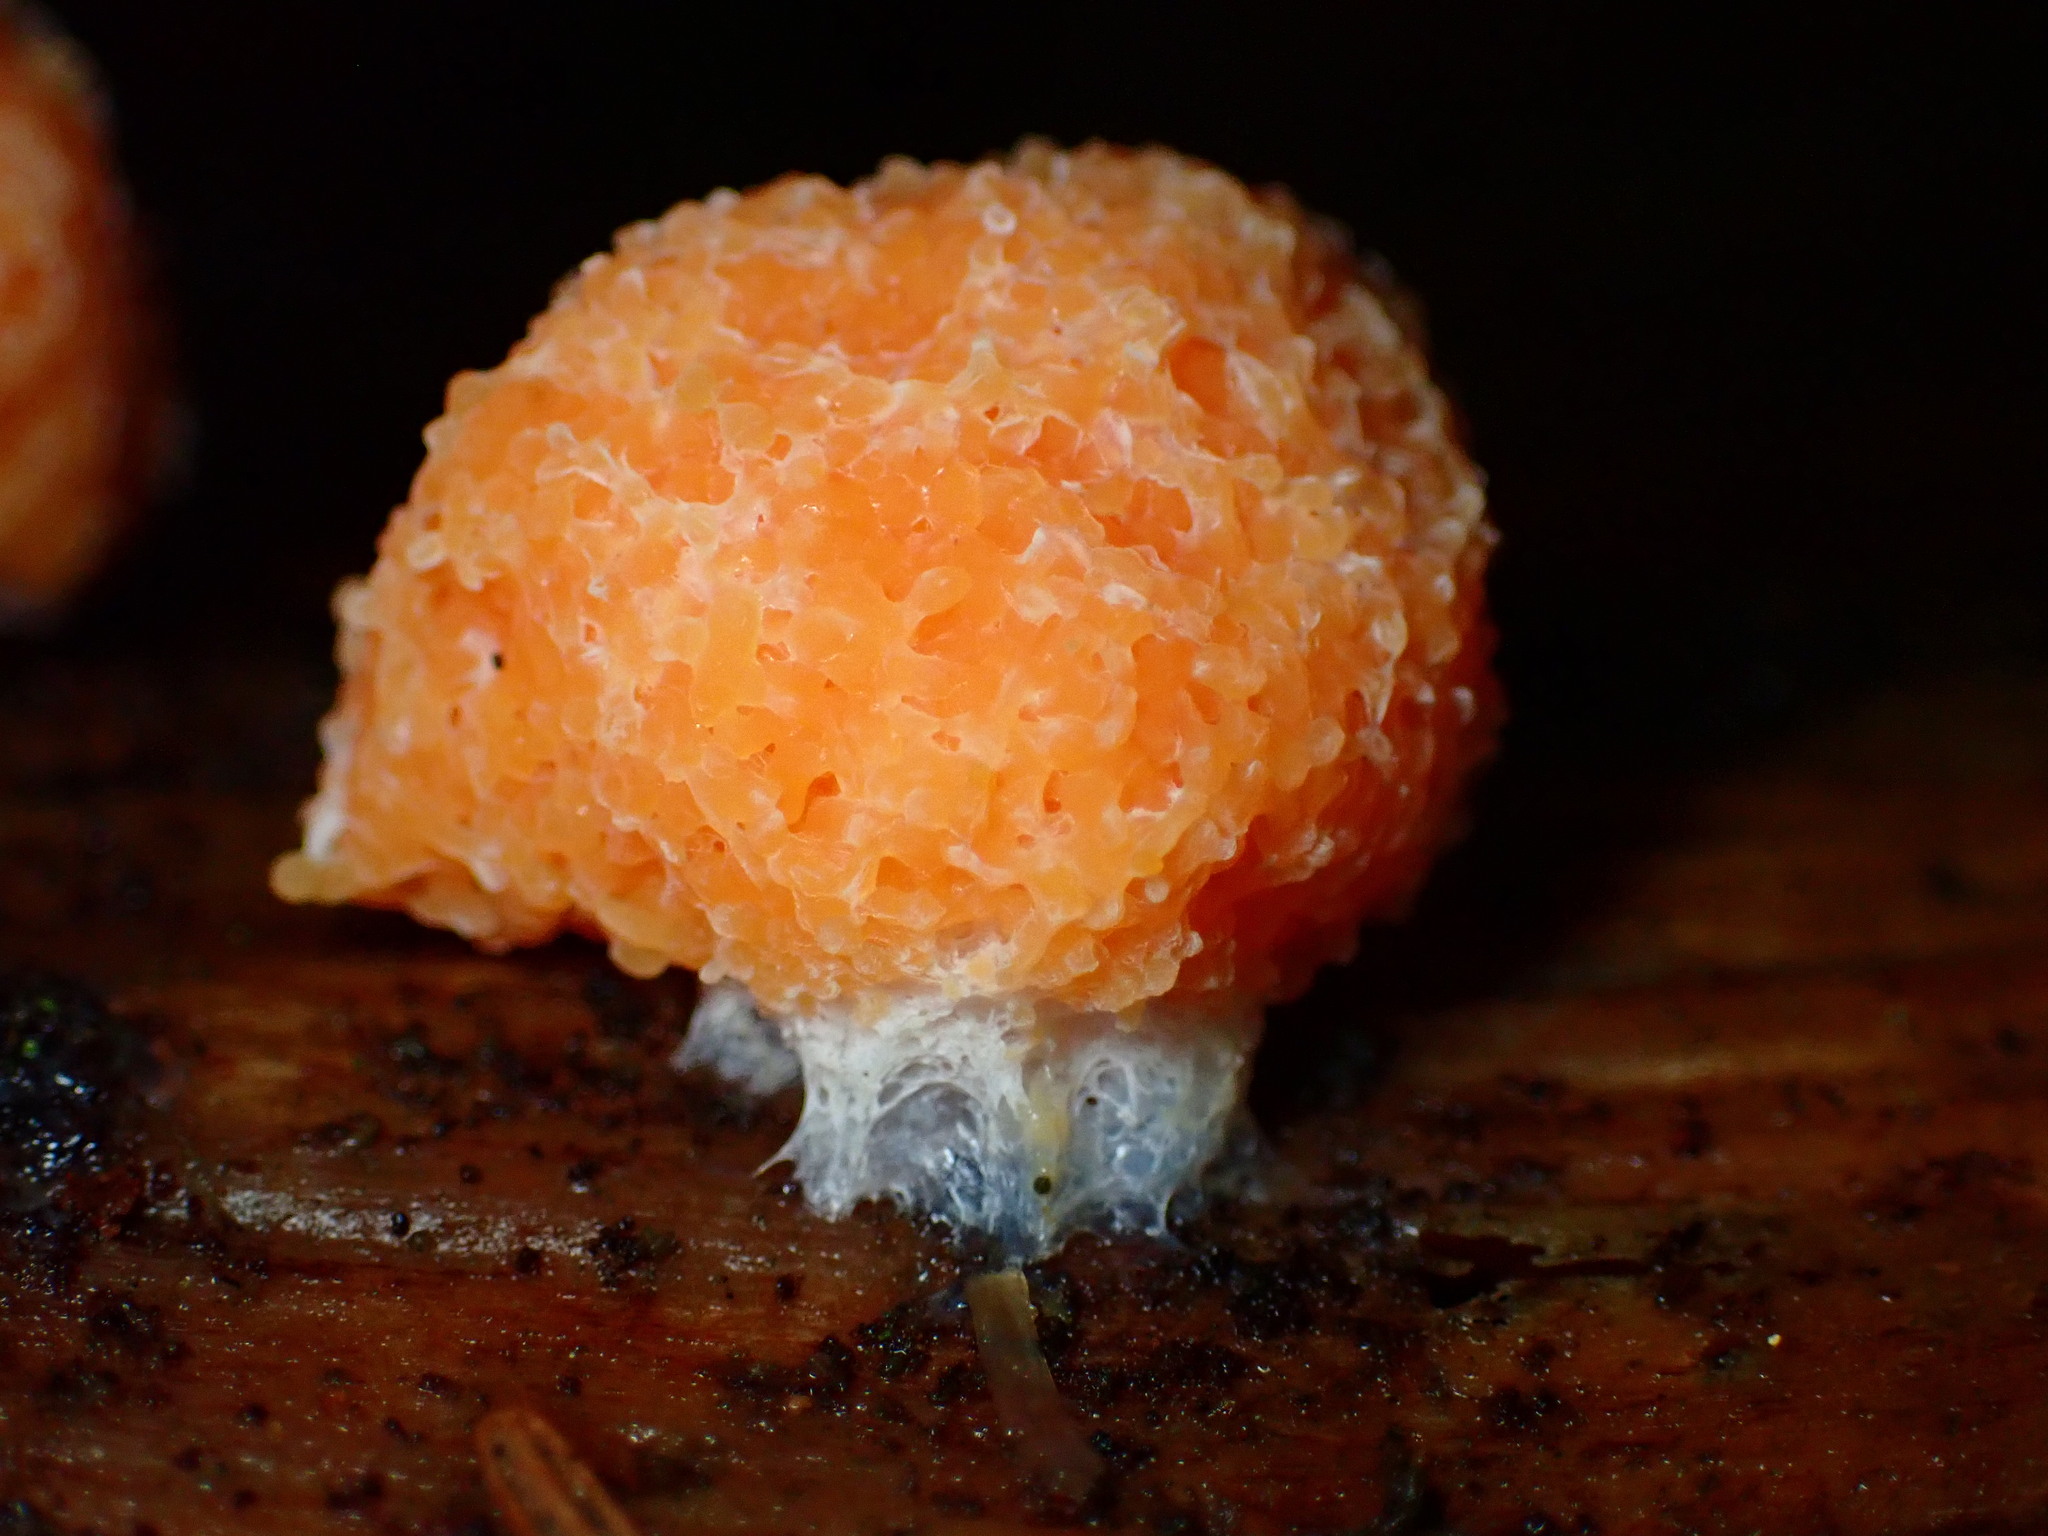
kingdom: Protozoa
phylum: Mycetozoa
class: Myxomycetes
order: Cribrariales
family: Tubiferaceae
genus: Tubifera
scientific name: Tubifera montana
